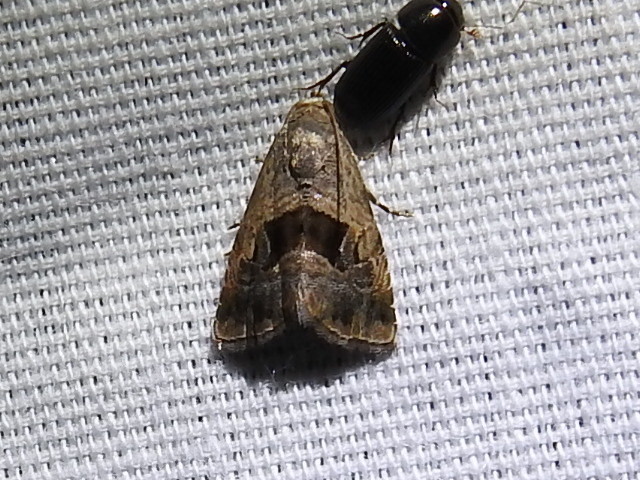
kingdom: Animalia
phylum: Arthropoda
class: Insecta
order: Lepidoptera
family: Noctuidae
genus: Tripudia
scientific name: Tripudia quadrifera
